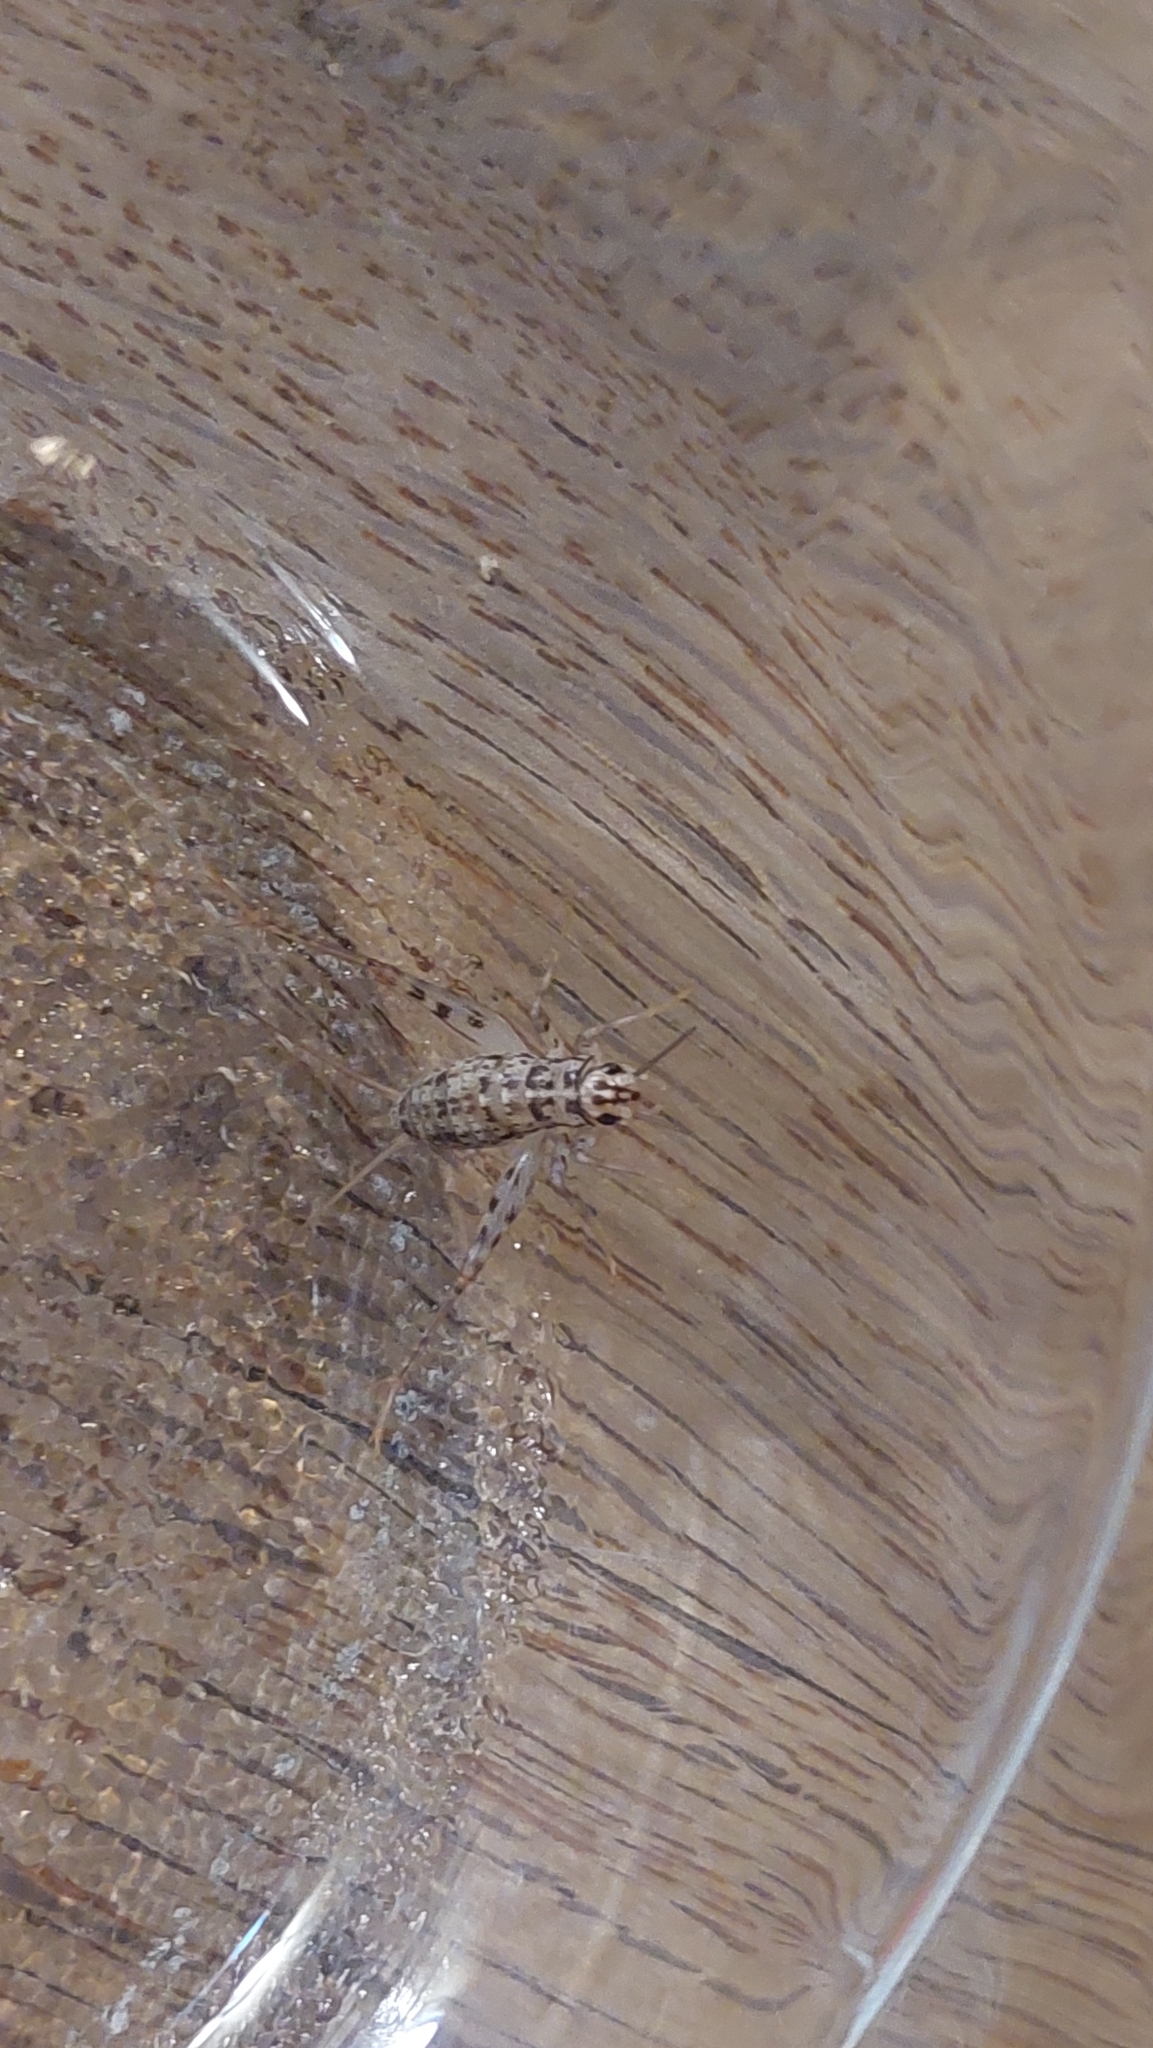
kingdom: Animalia
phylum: Arthropoda
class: Insecta
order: Orthoptera
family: Gryllidae
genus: Gryllomorpha
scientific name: Gryllomorpha dalmatina
